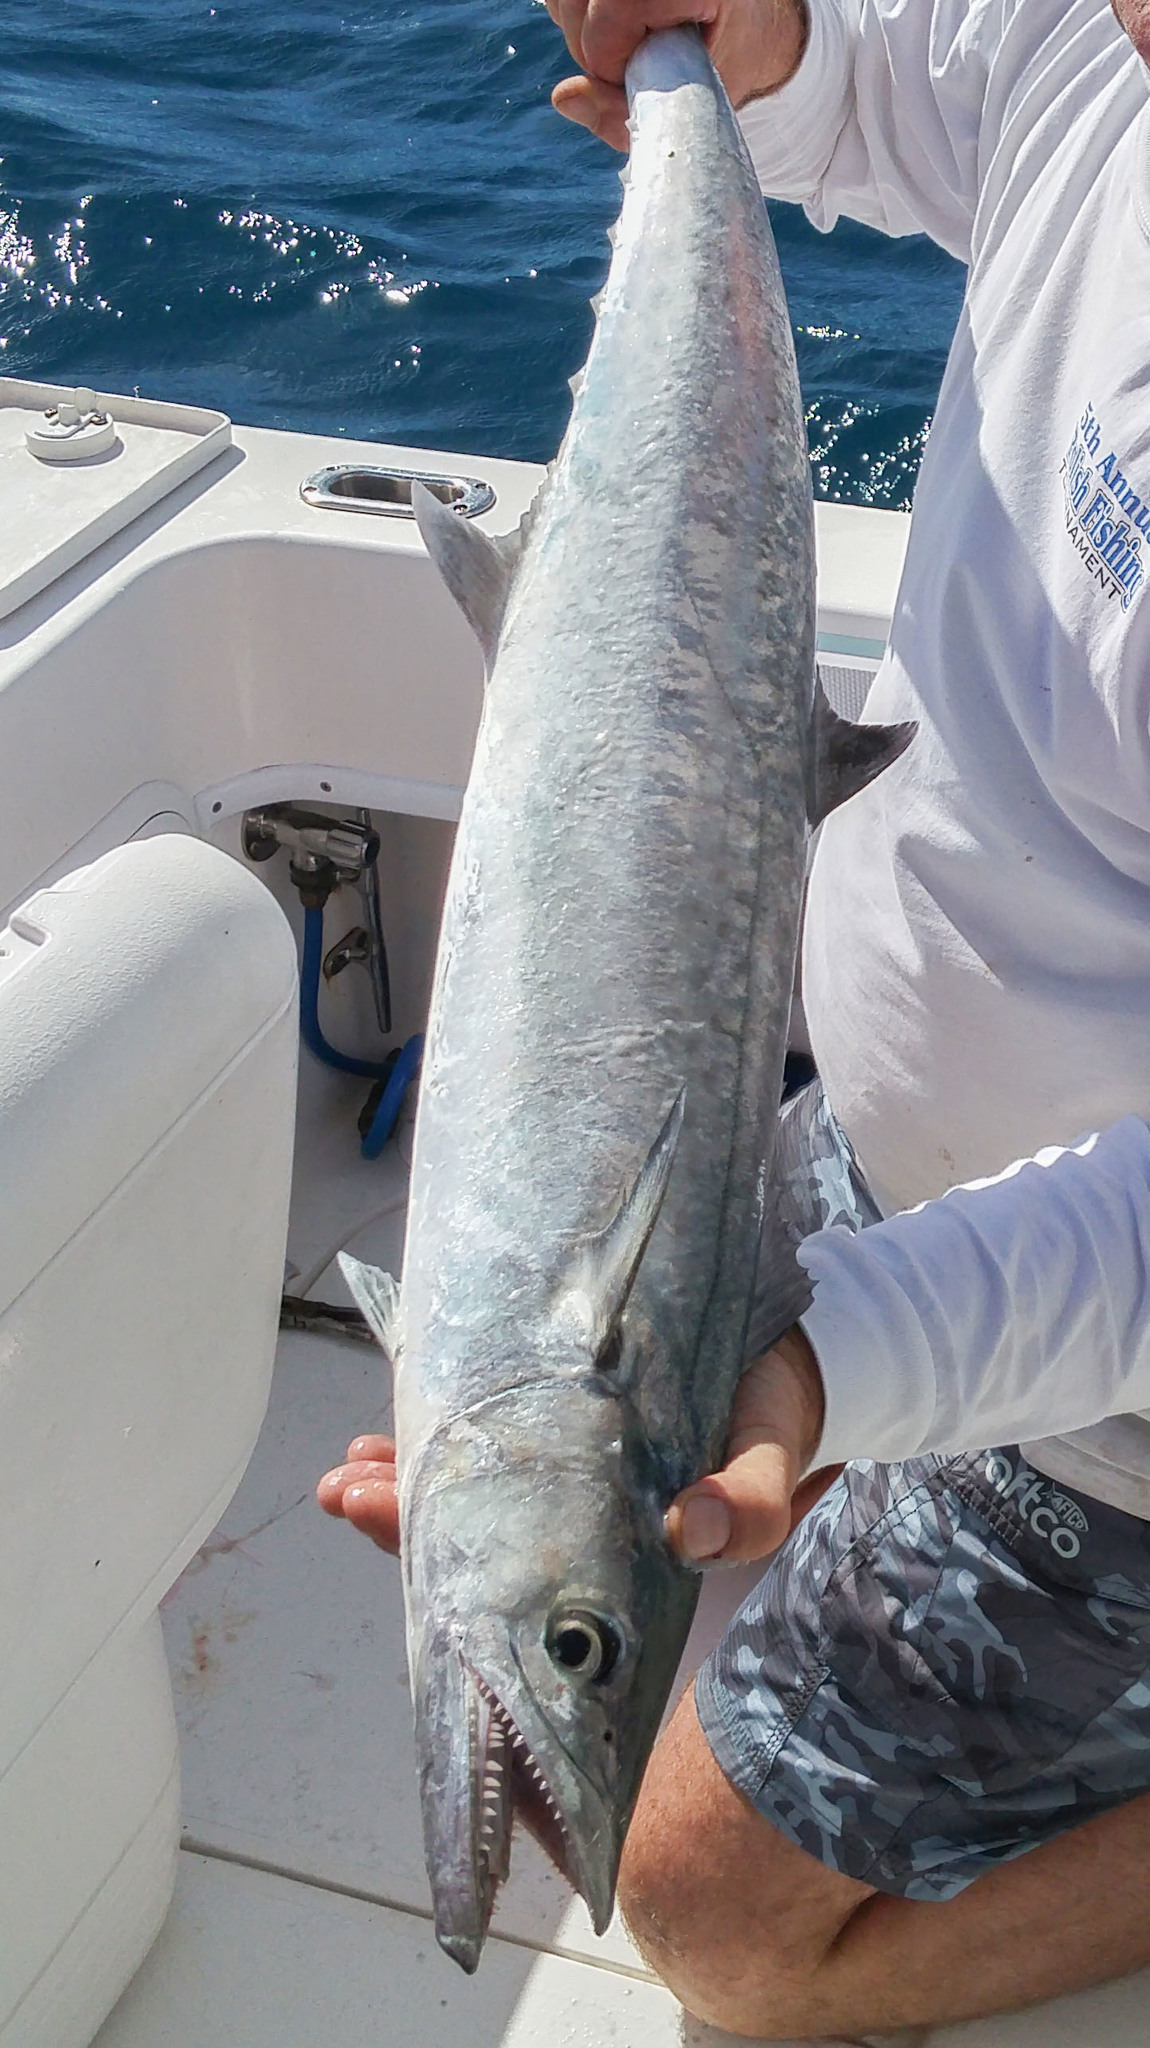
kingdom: Animalia
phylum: Chordata
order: Perciformes
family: Scombridae
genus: Scomberomorus
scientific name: Scomberomorus cavalla
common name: King mackerel
